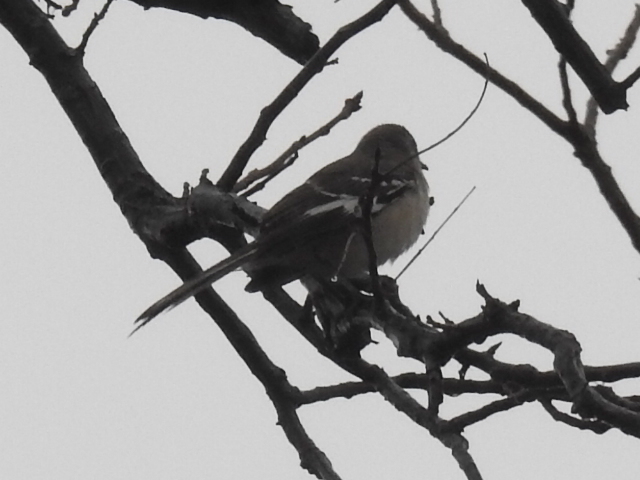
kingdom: Animalia
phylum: Chordata
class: Aves
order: Passeriformes
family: Mimidae
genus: Mimus
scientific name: Mimus polyglottos
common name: Northern mockingbird
